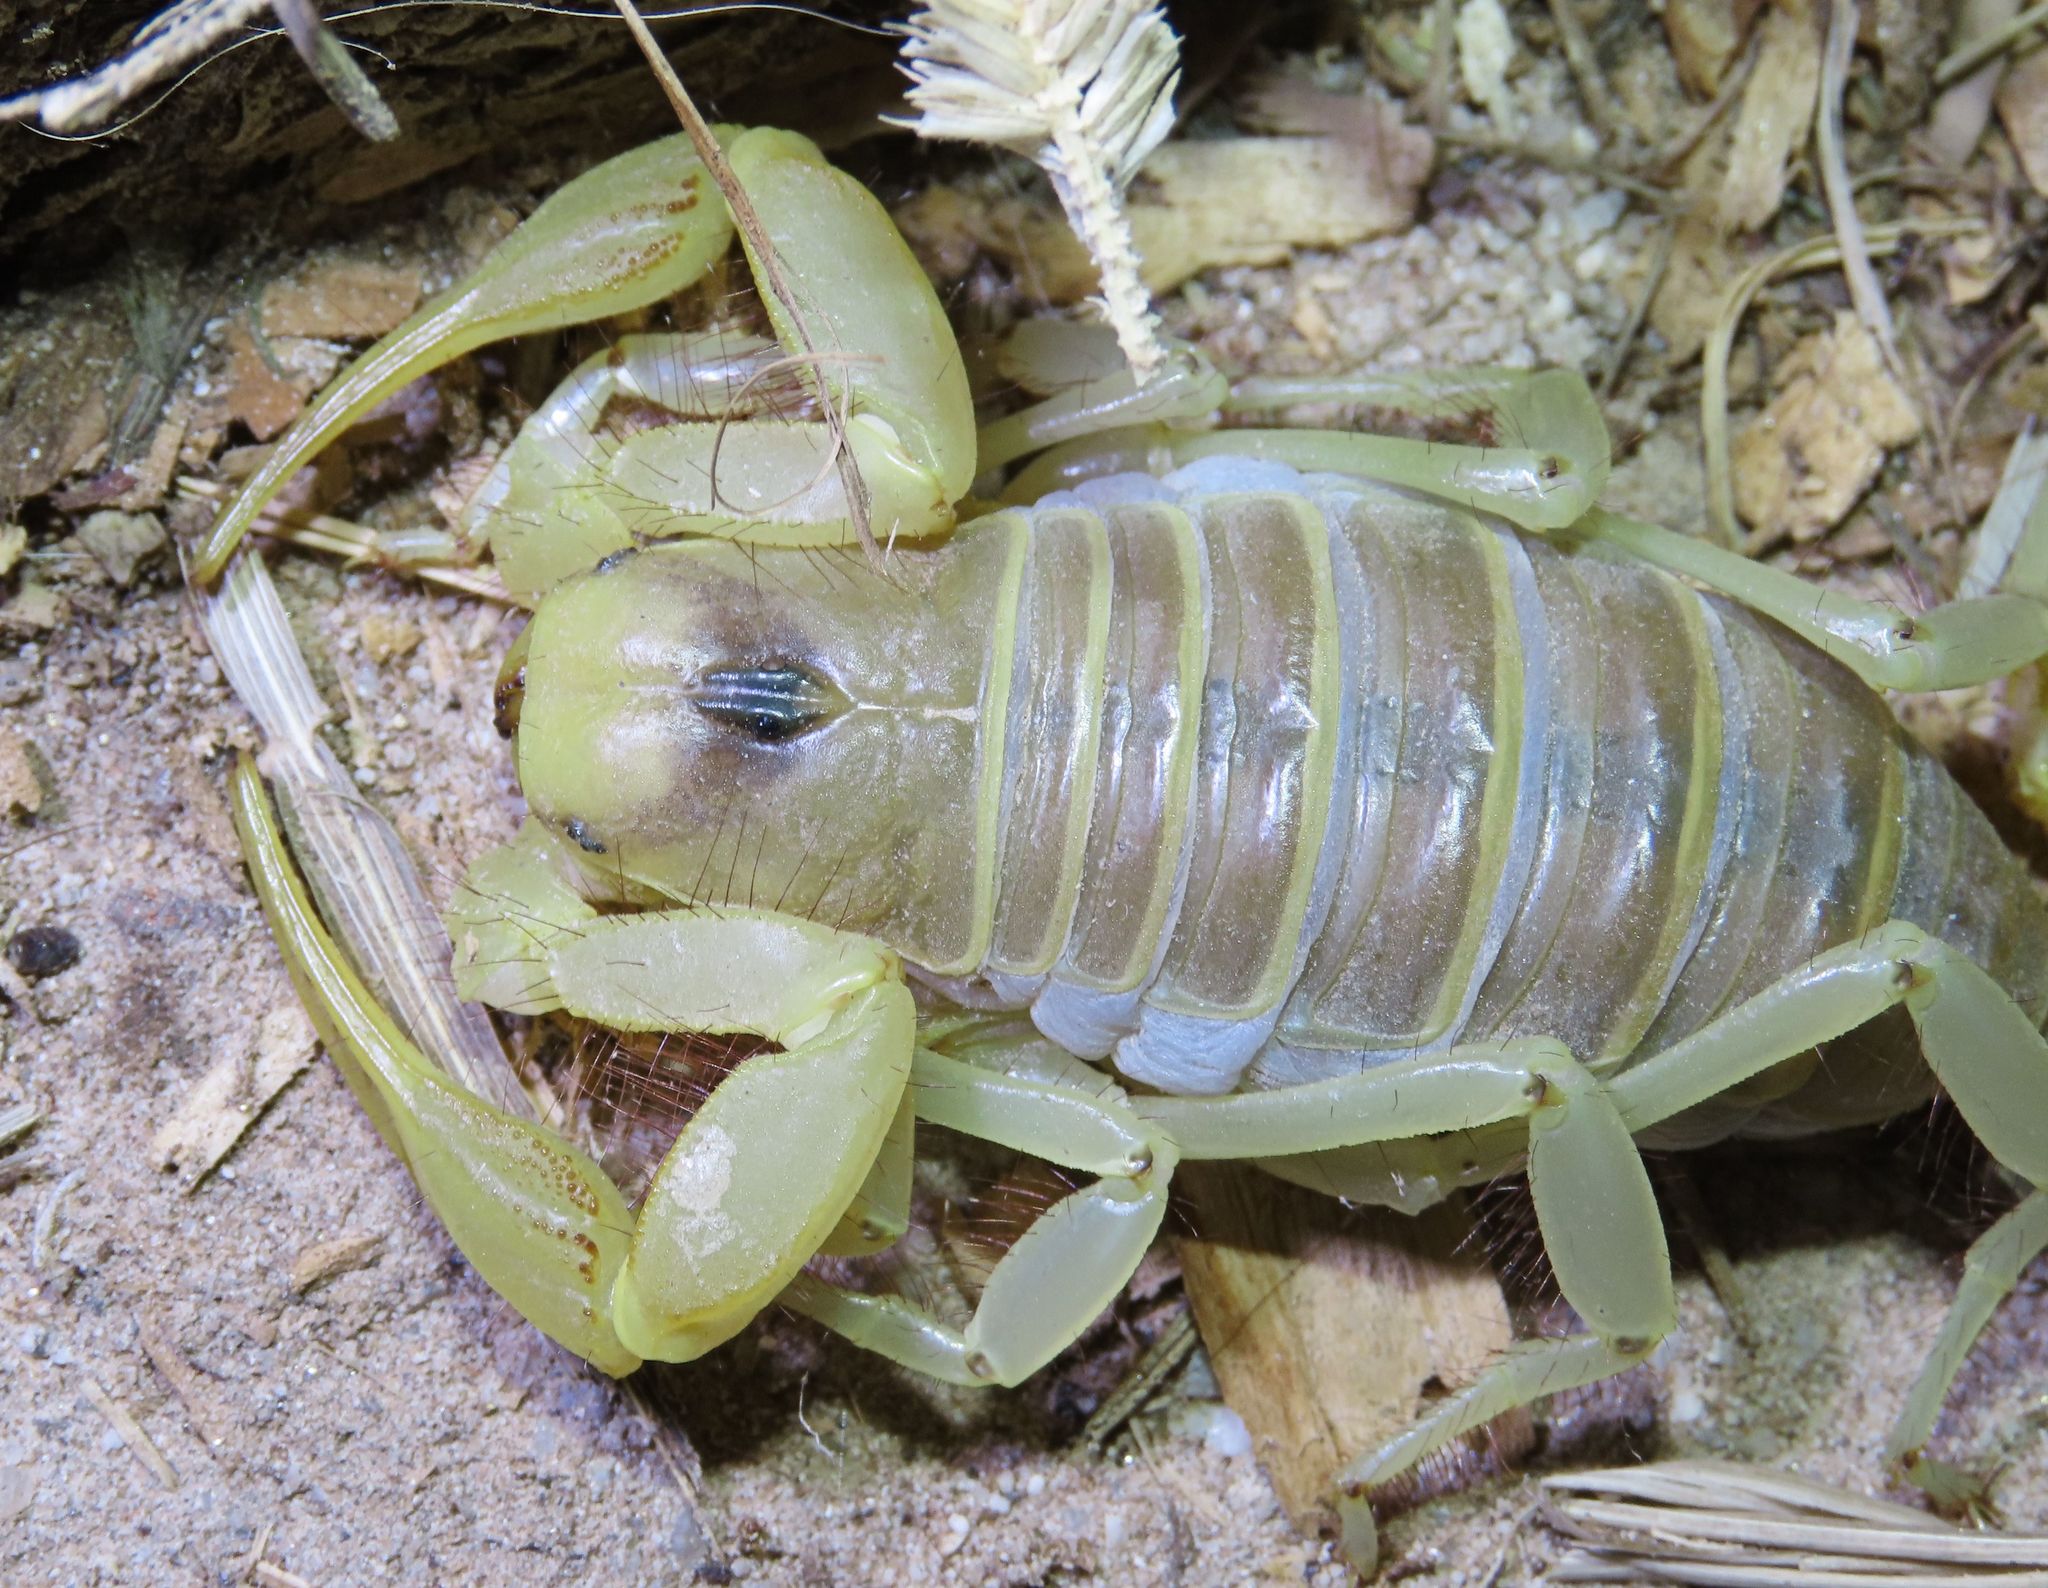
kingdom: Animalia
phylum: Arthropoda
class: Arachnida
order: Scorpiones
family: Hadruridae
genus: Hadrurus
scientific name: Hadrurus arizonensis
